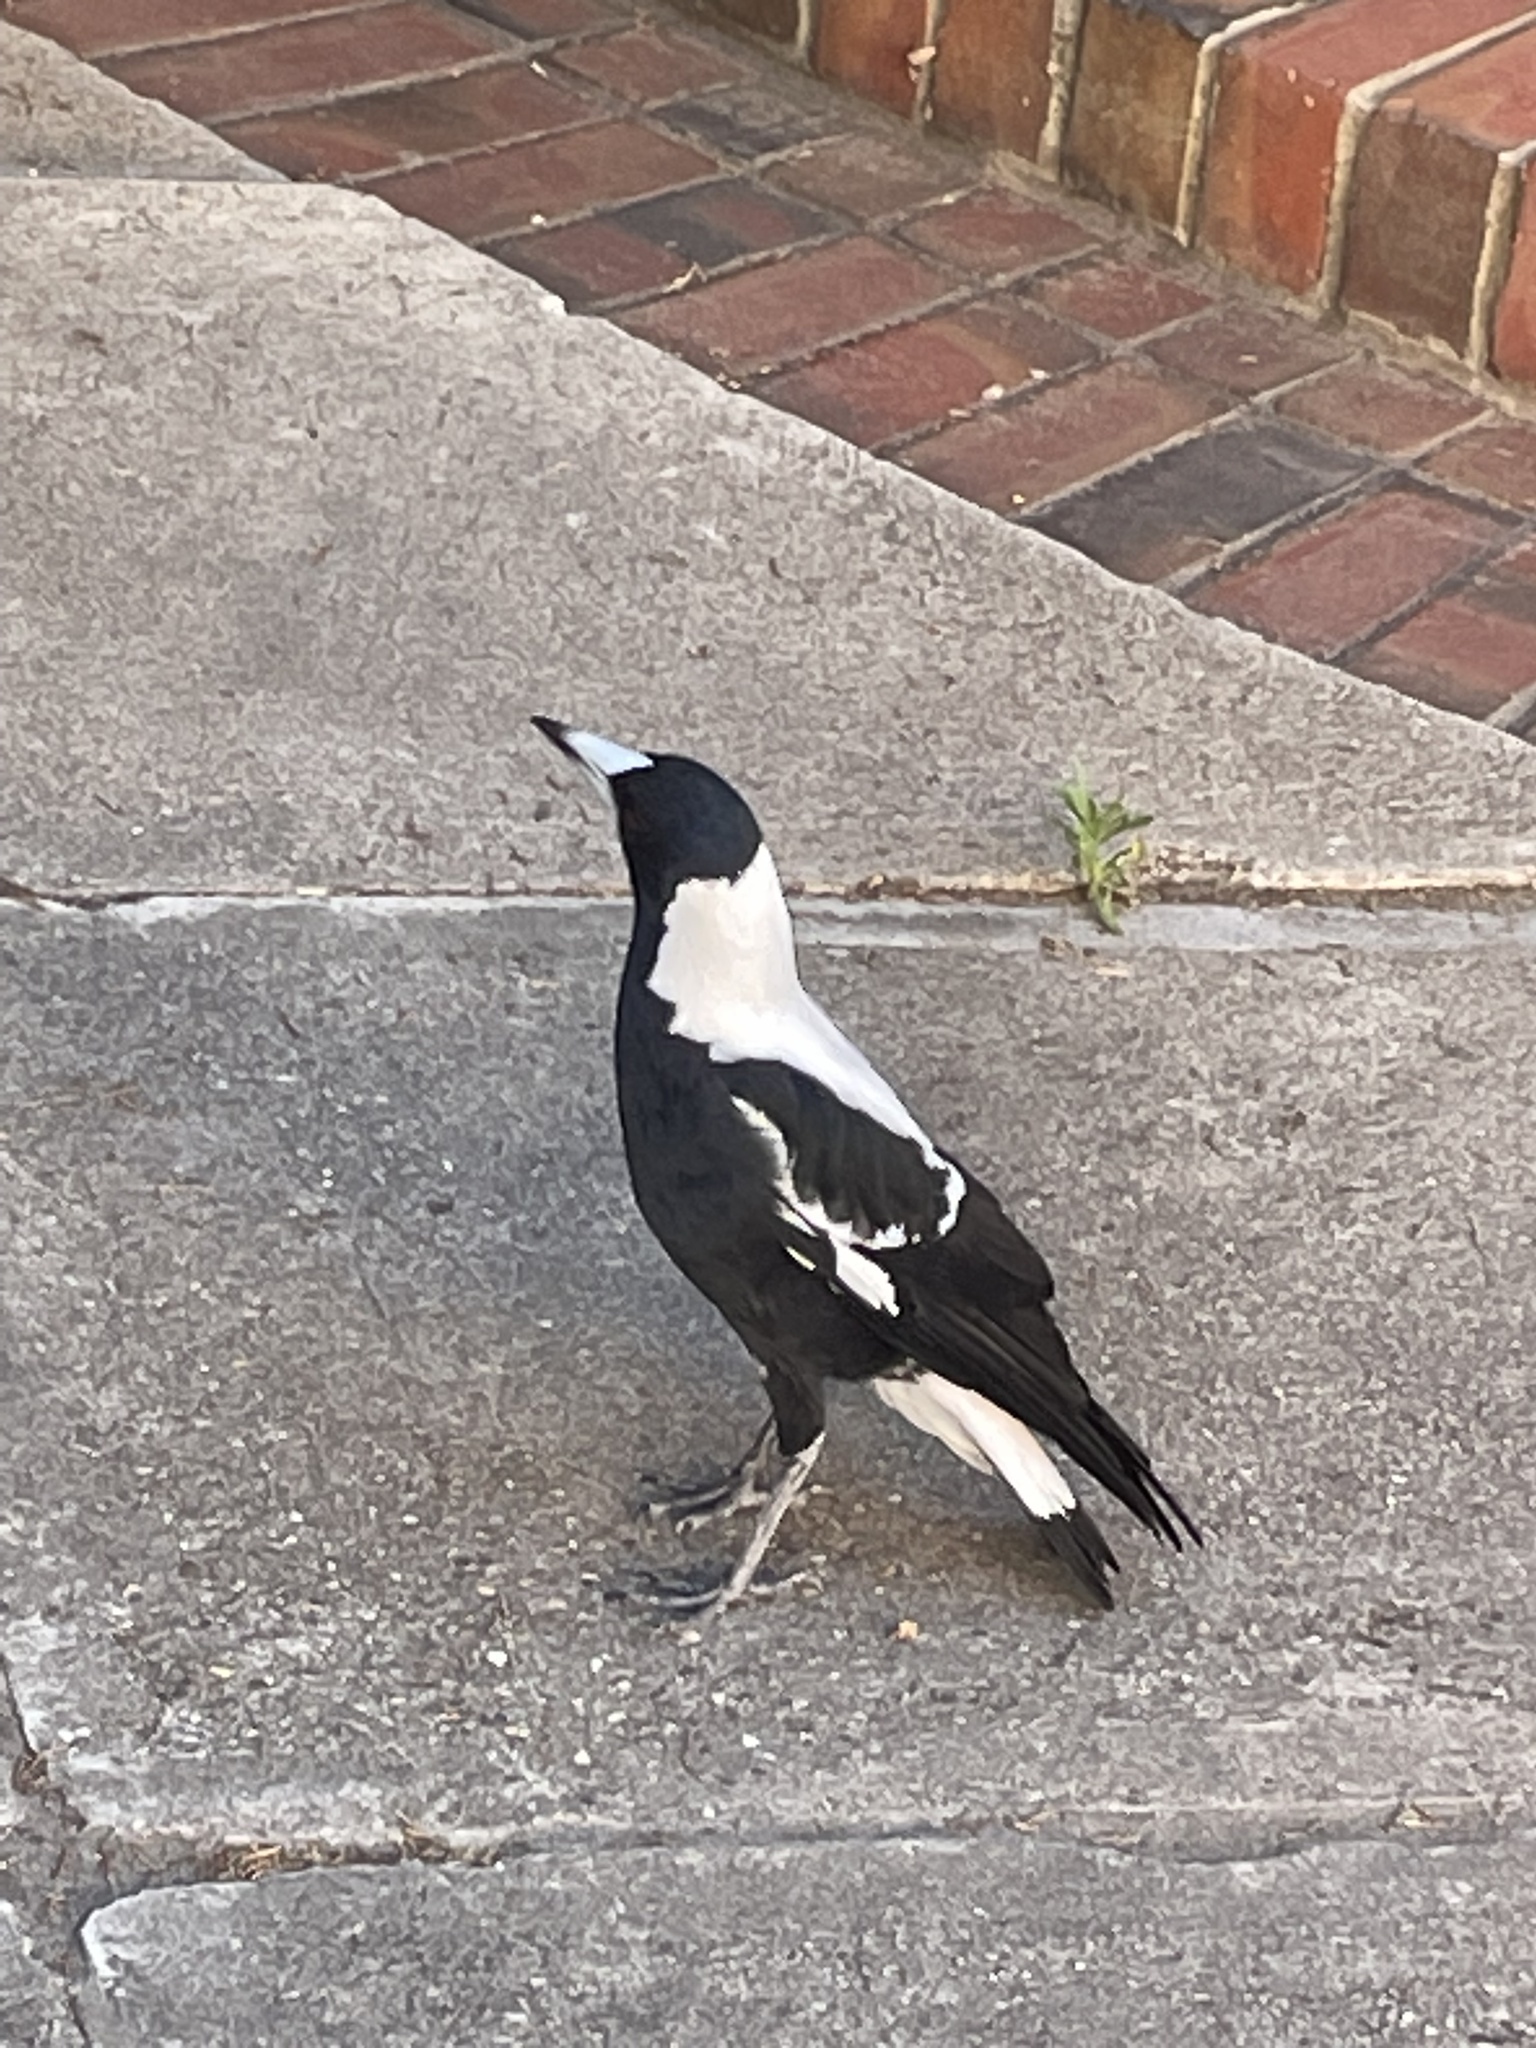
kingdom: Animalia
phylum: Chordata
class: Aves
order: Passeriformes
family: Cracticidae
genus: Gymnorhina
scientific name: Gymnorhina tibicen
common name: Australian magpie
